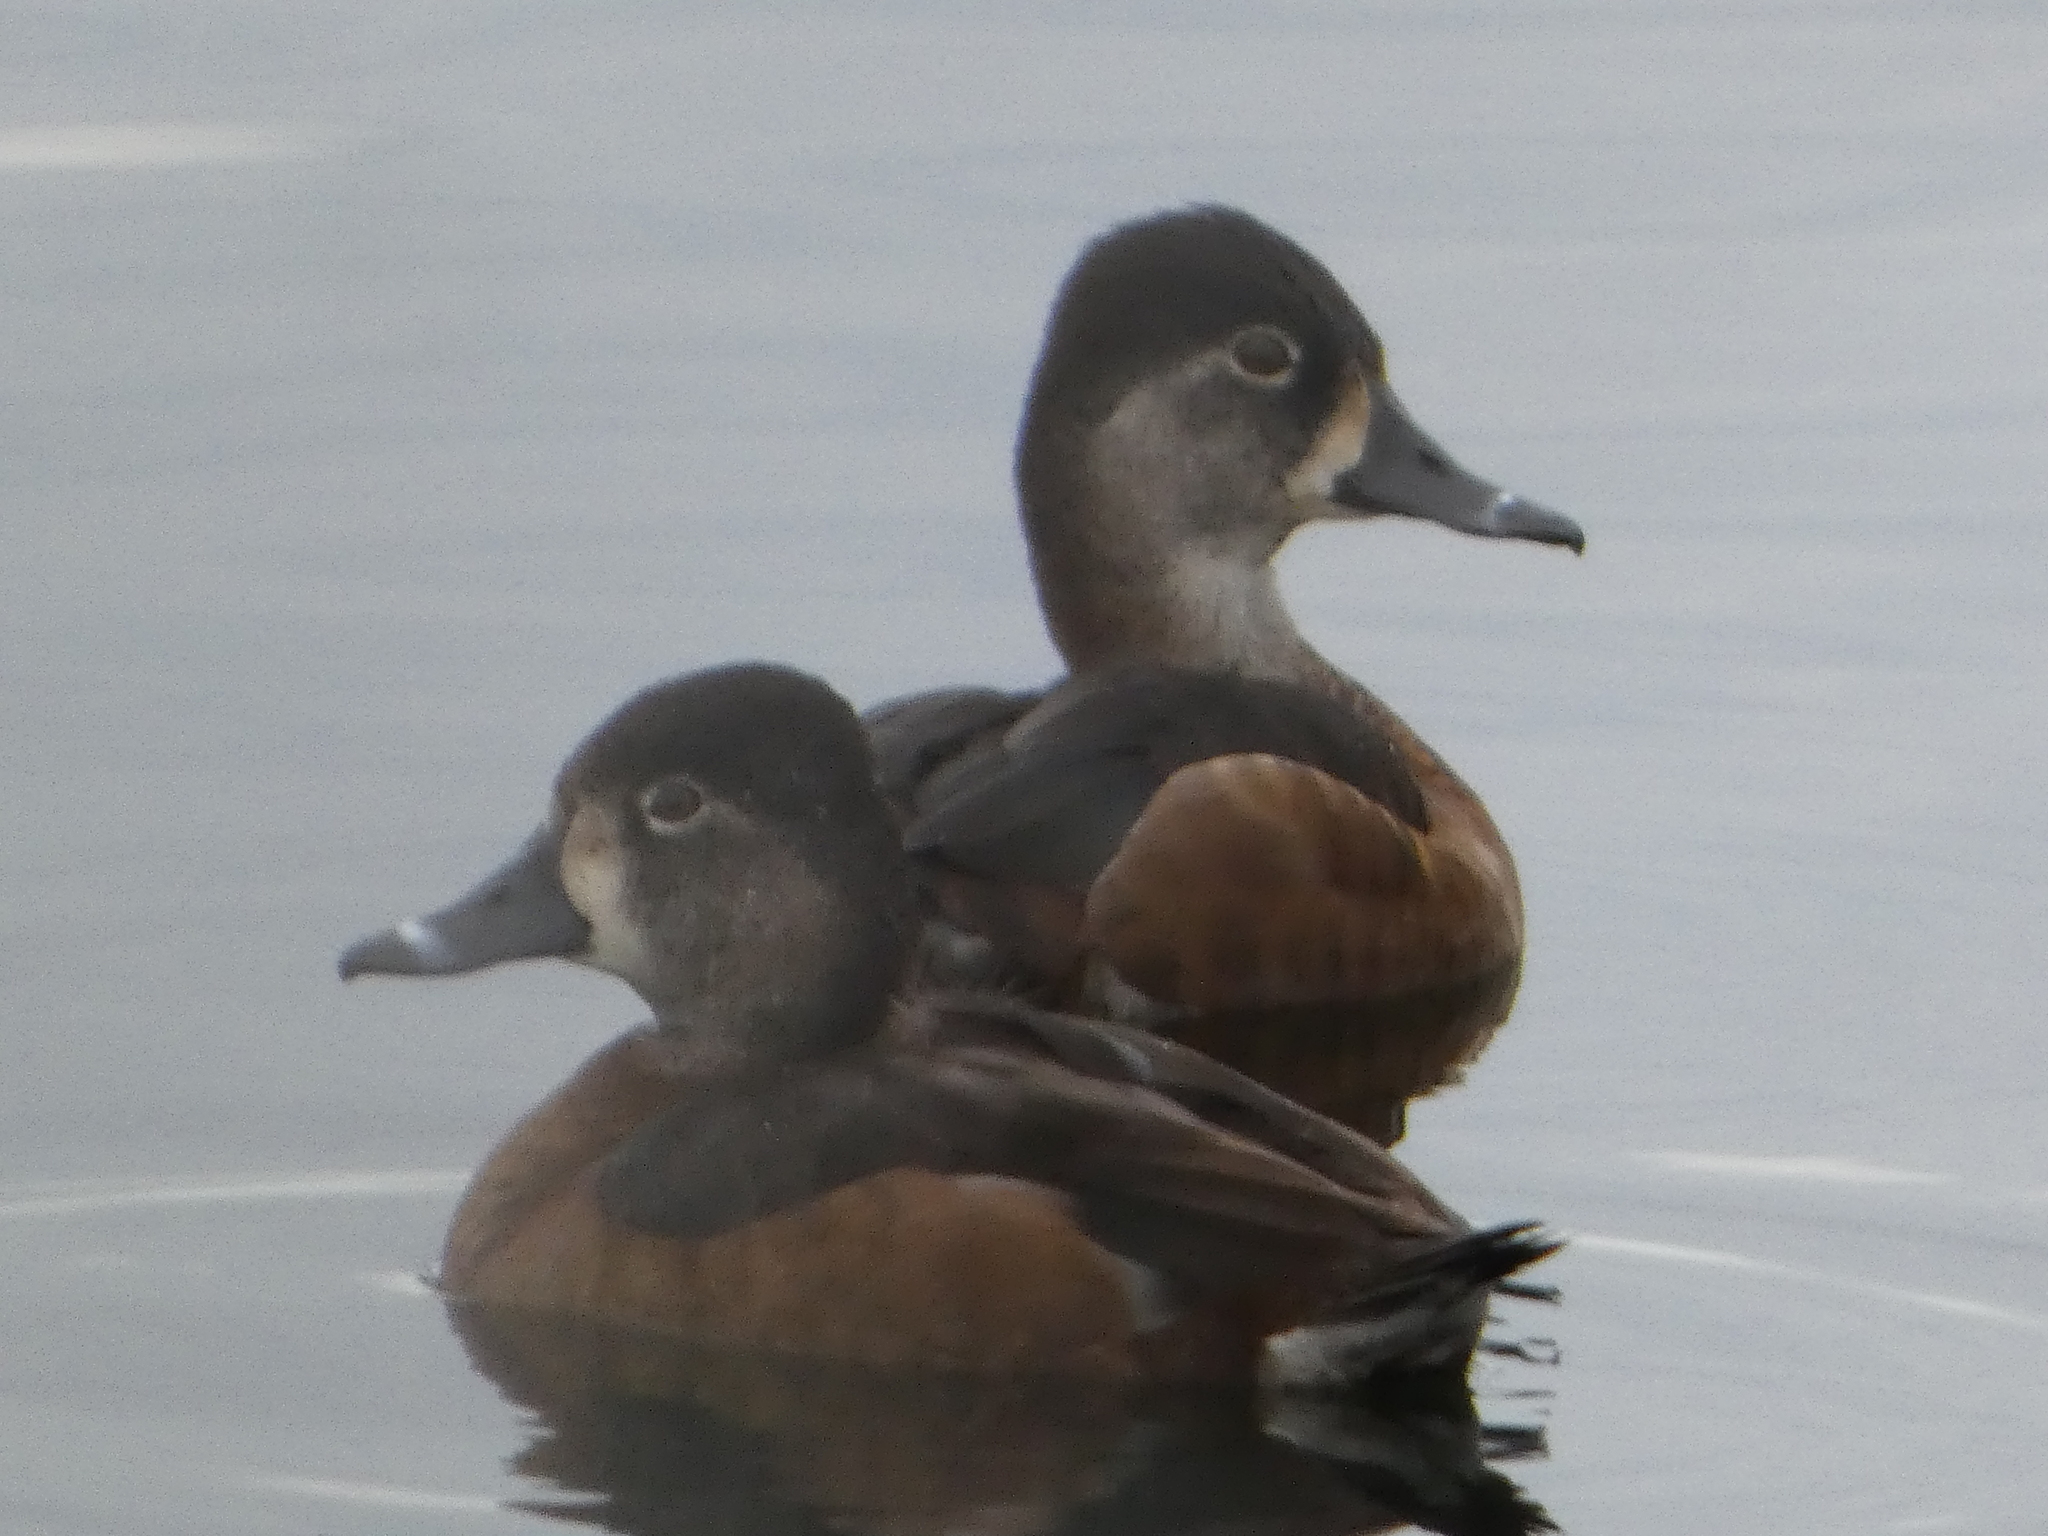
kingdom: Animalia
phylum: Chordata
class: Aves
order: Anseriformes
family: Anatidae
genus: Aythya
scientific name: Aythya collaris
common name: Ring-necked duck
